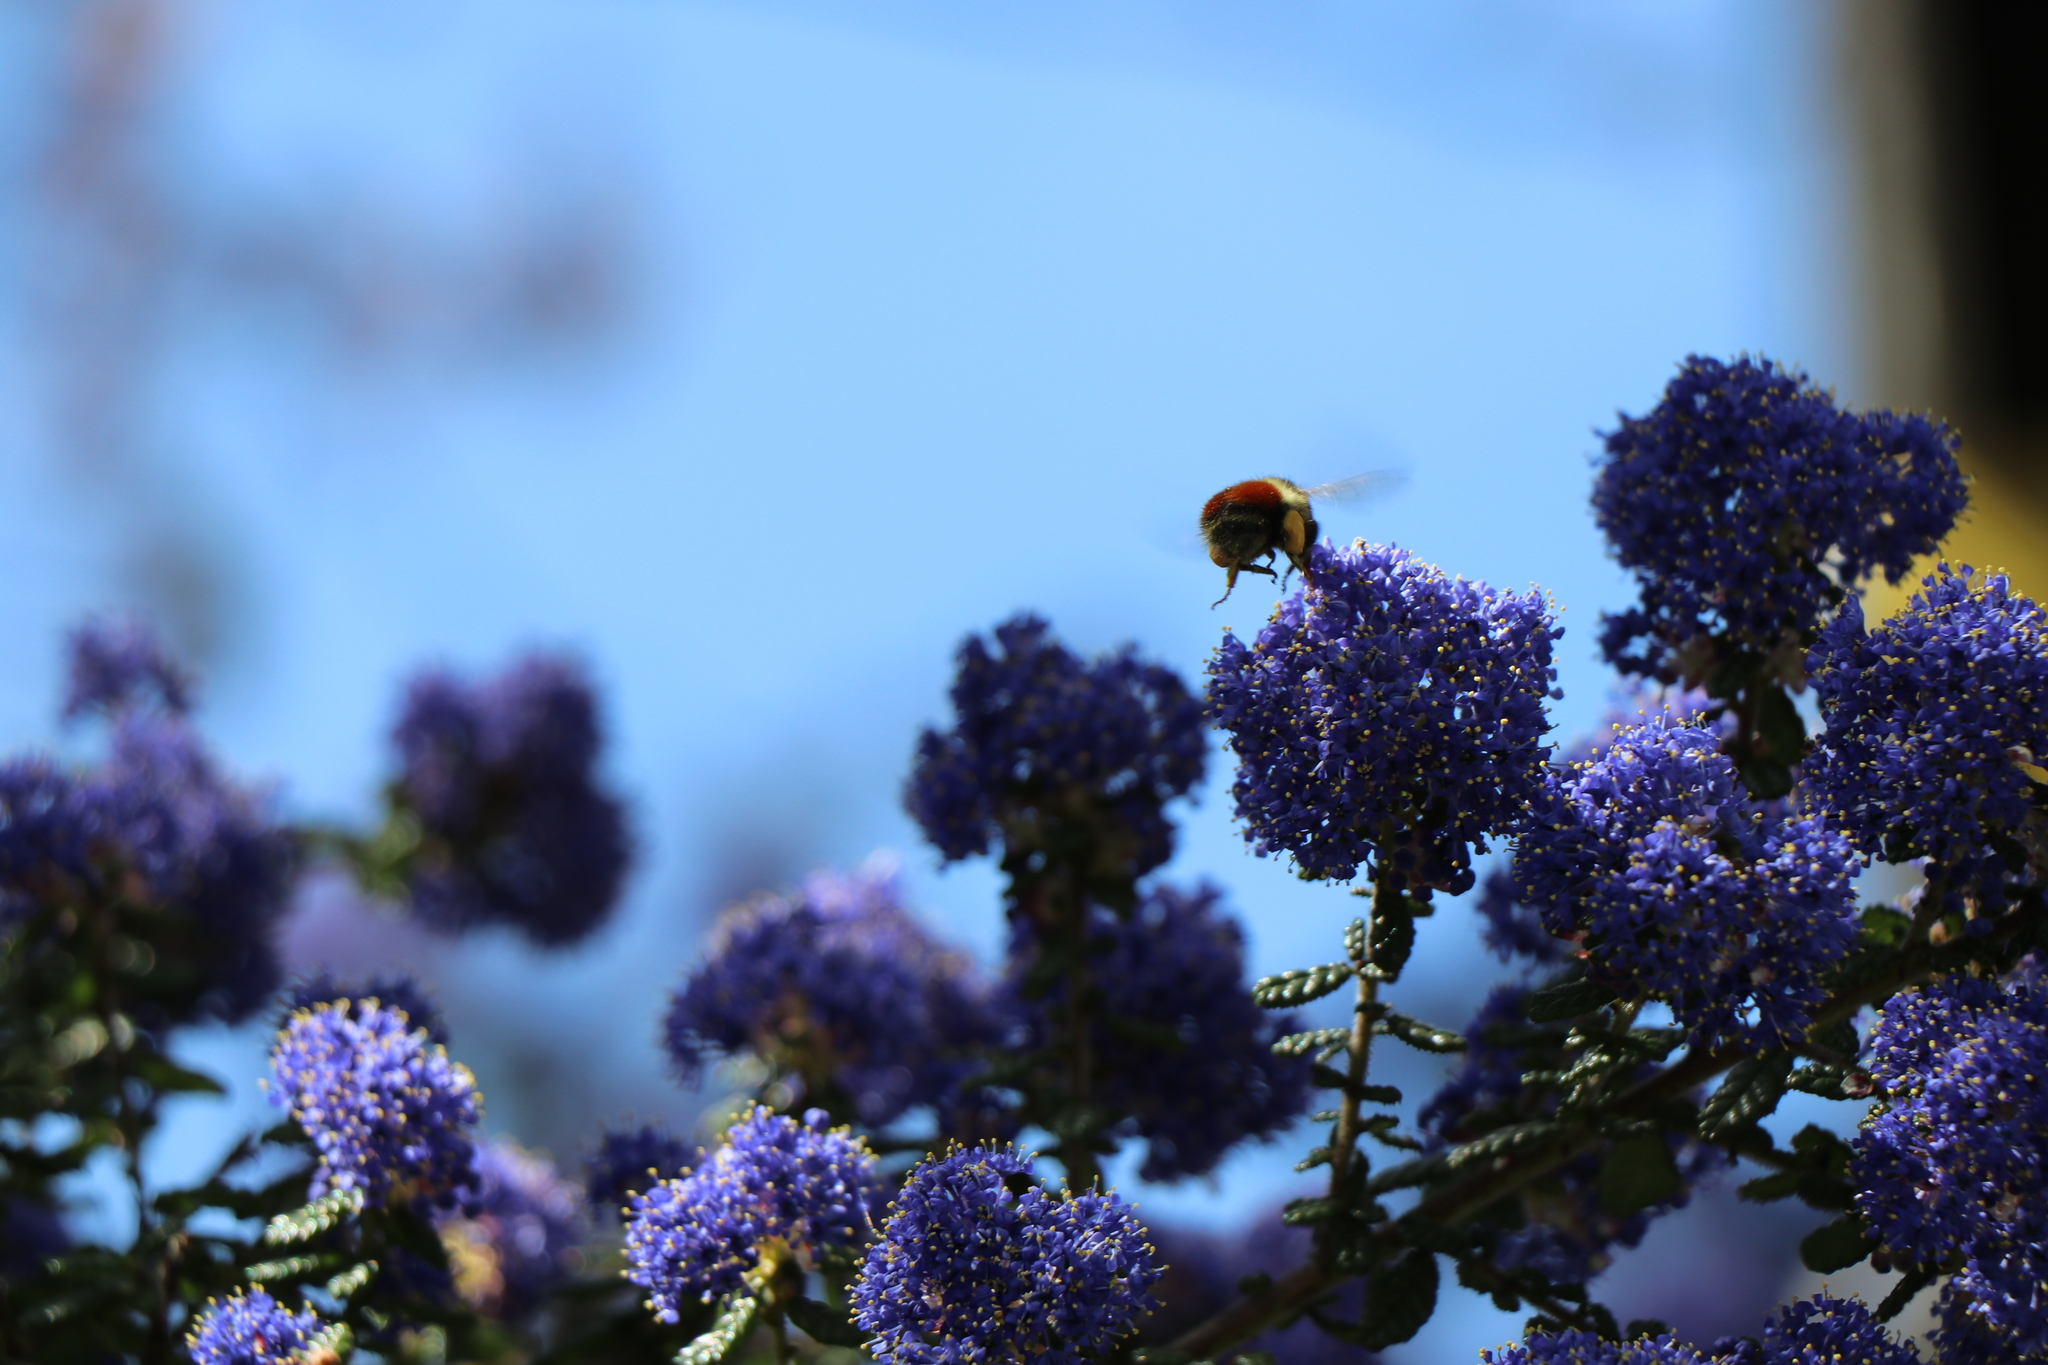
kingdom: Animalia
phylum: Arthropoda
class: Insecta
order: Hymenoptera
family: Apidae
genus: Bombus
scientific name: Bombus melanopygus
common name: Black tail bumble bee
